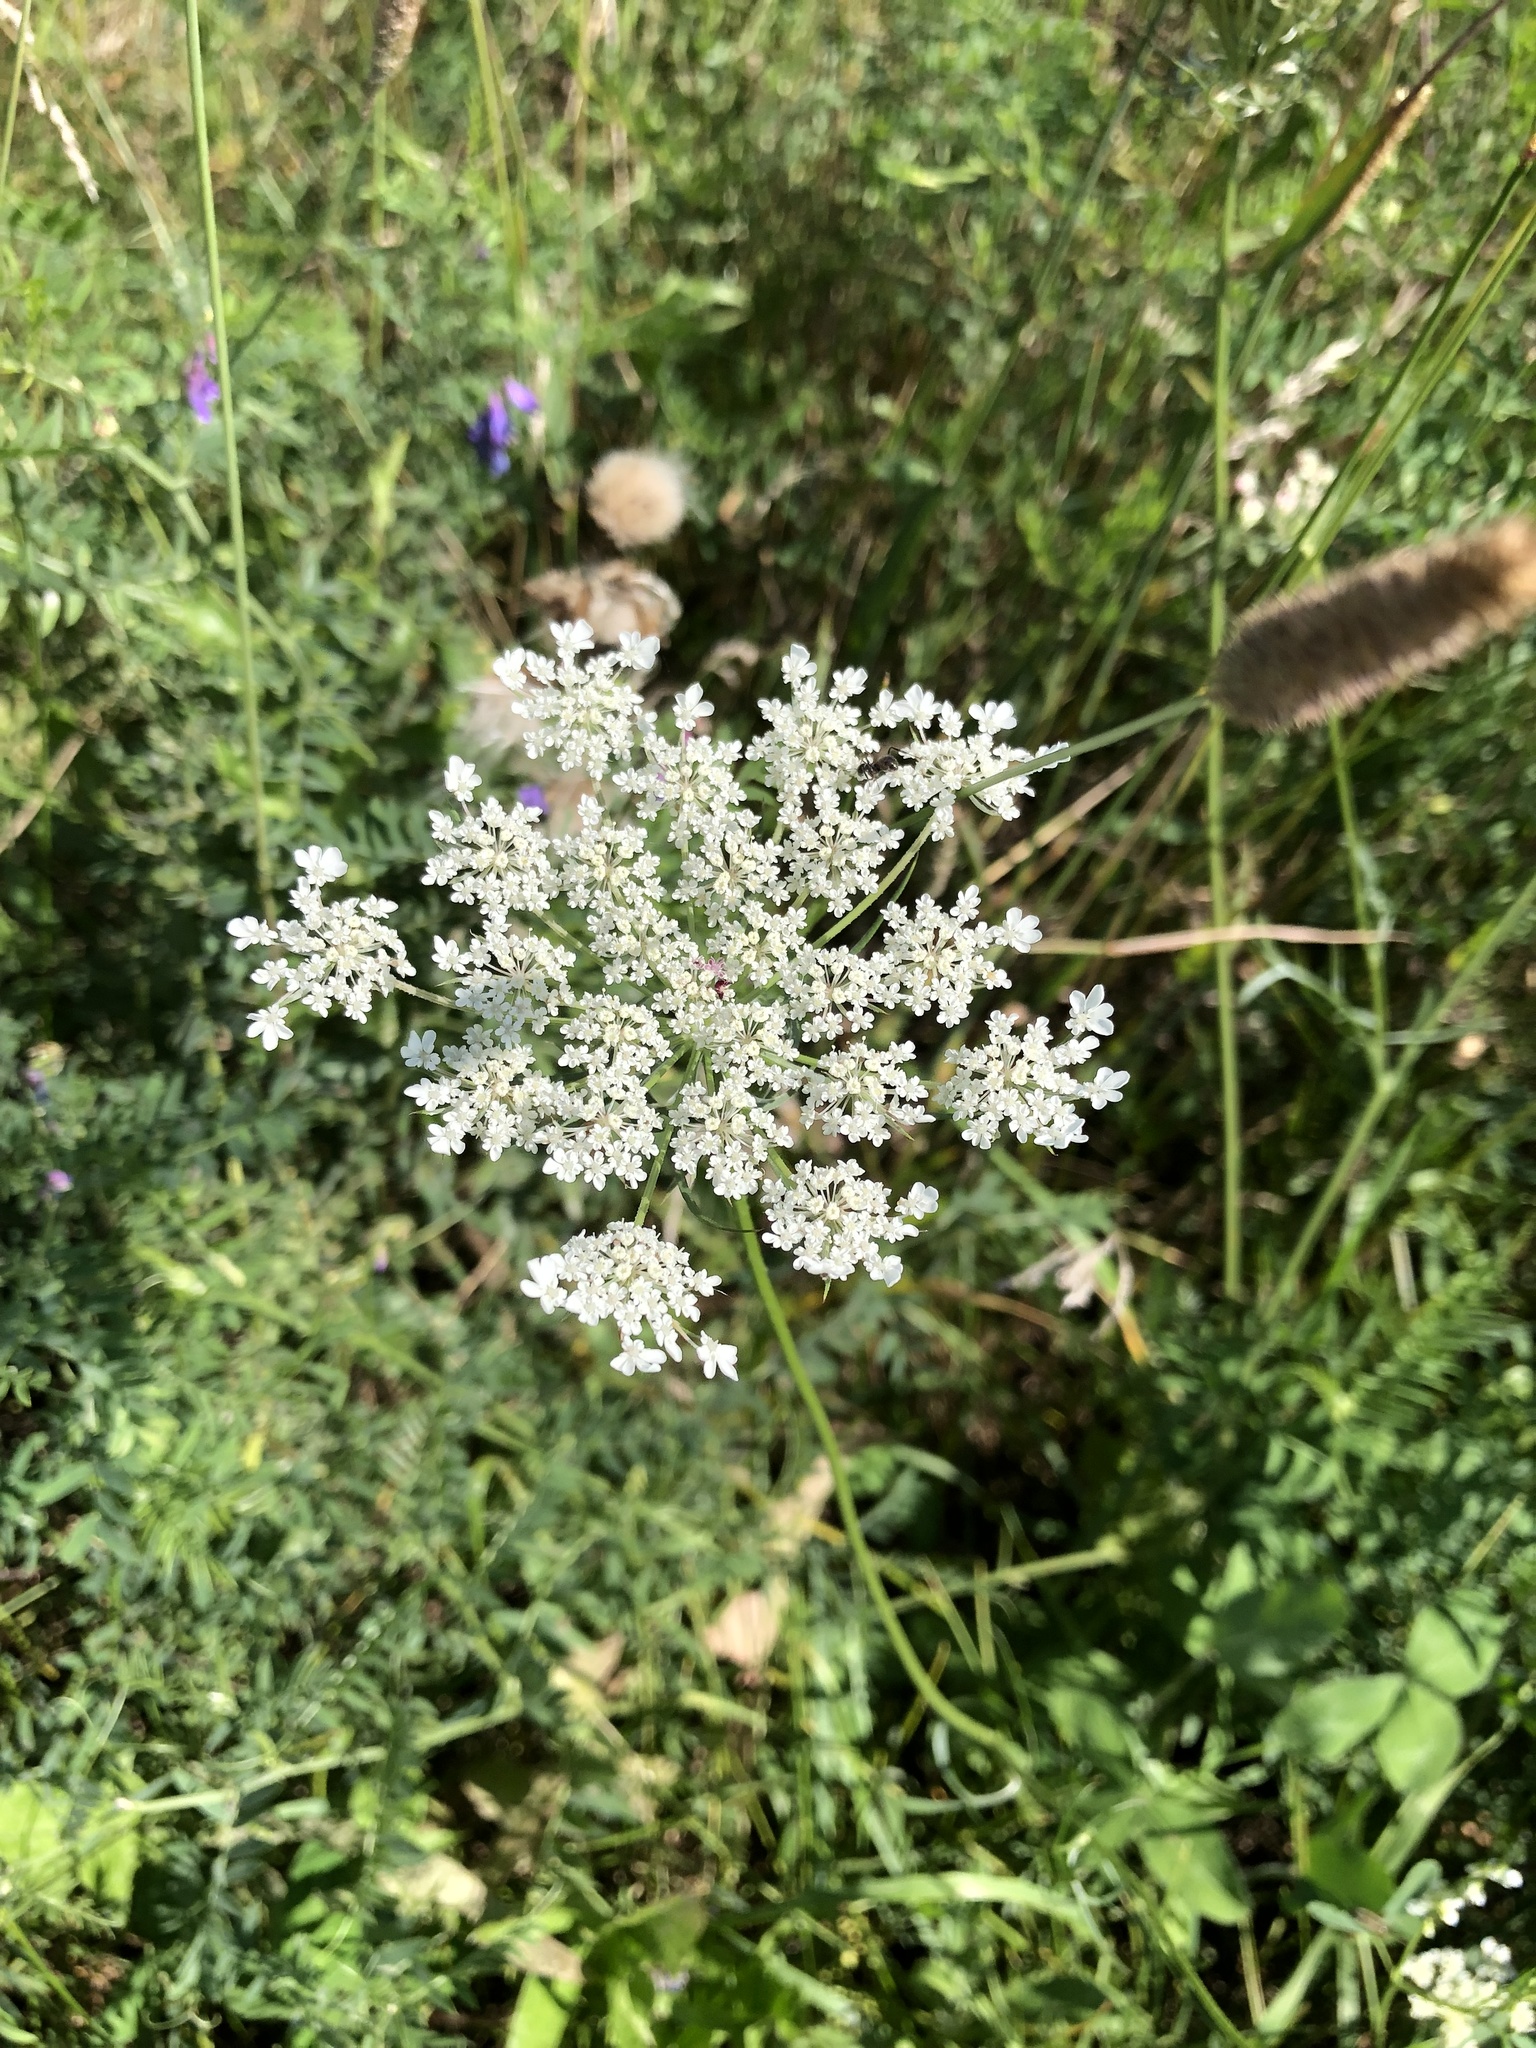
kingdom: Plantae
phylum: Tracheophyta
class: Magnoliopsida
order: Apiales
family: Apiaceae
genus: Daucus
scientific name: Daucus carota
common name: Wild carrot
